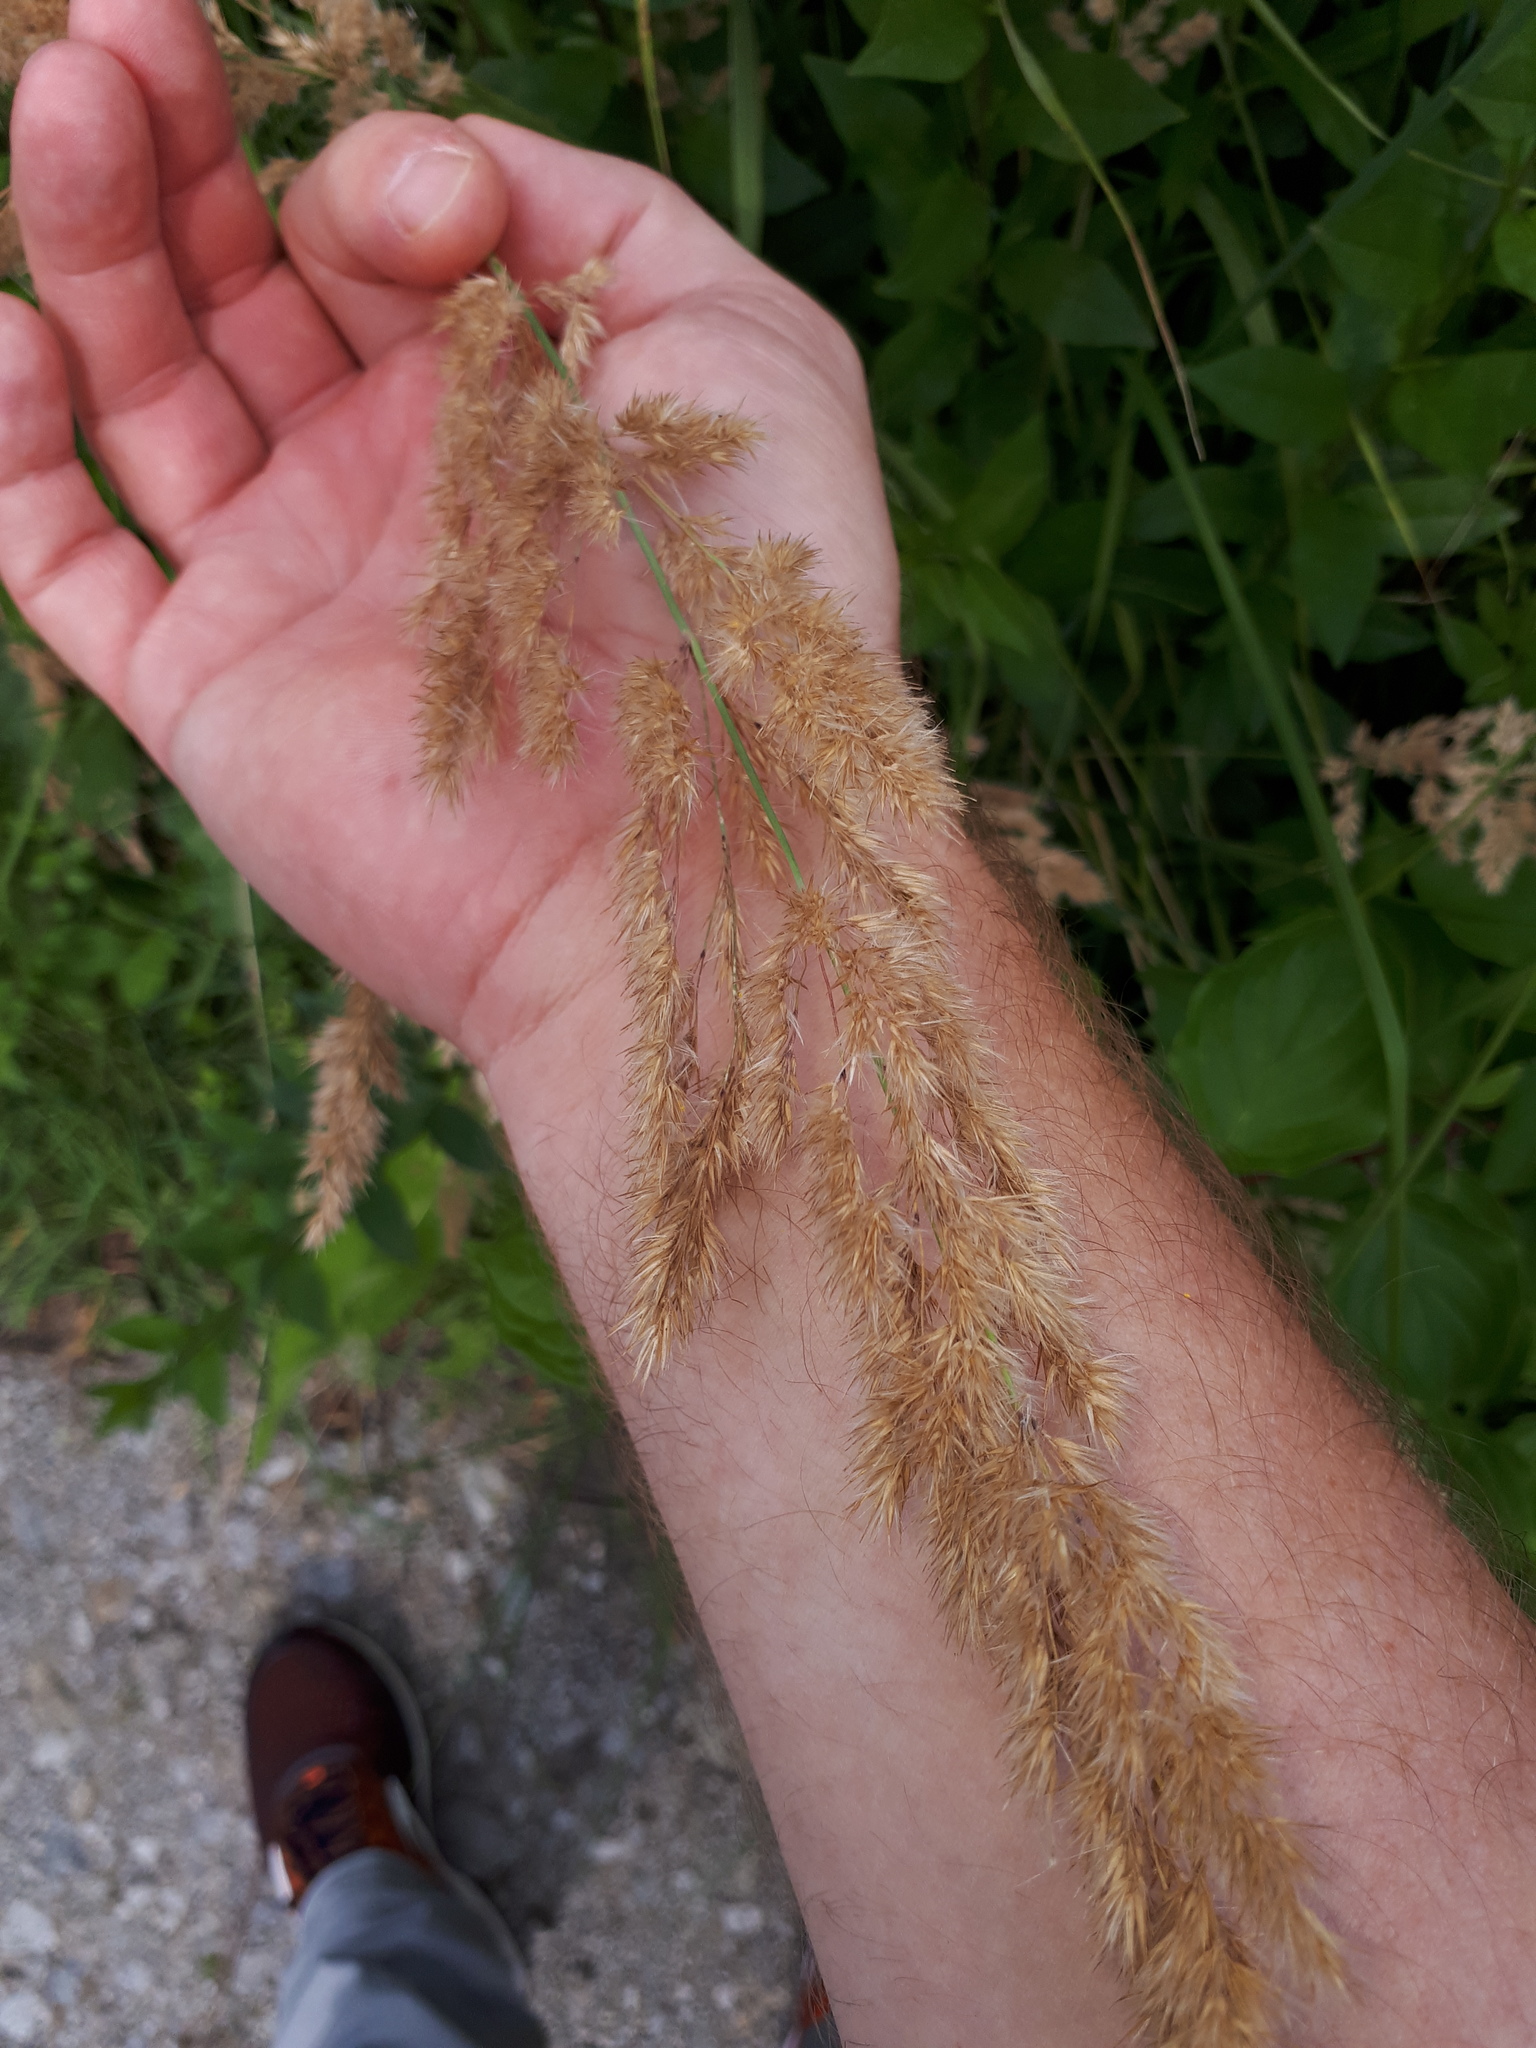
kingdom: Plantae
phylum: Tracheophyta
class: Liliopsida
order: Poales
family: Poaceae
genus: Calamagrostis
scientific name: Calamagrostis epigejos
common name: Wood small-reed
